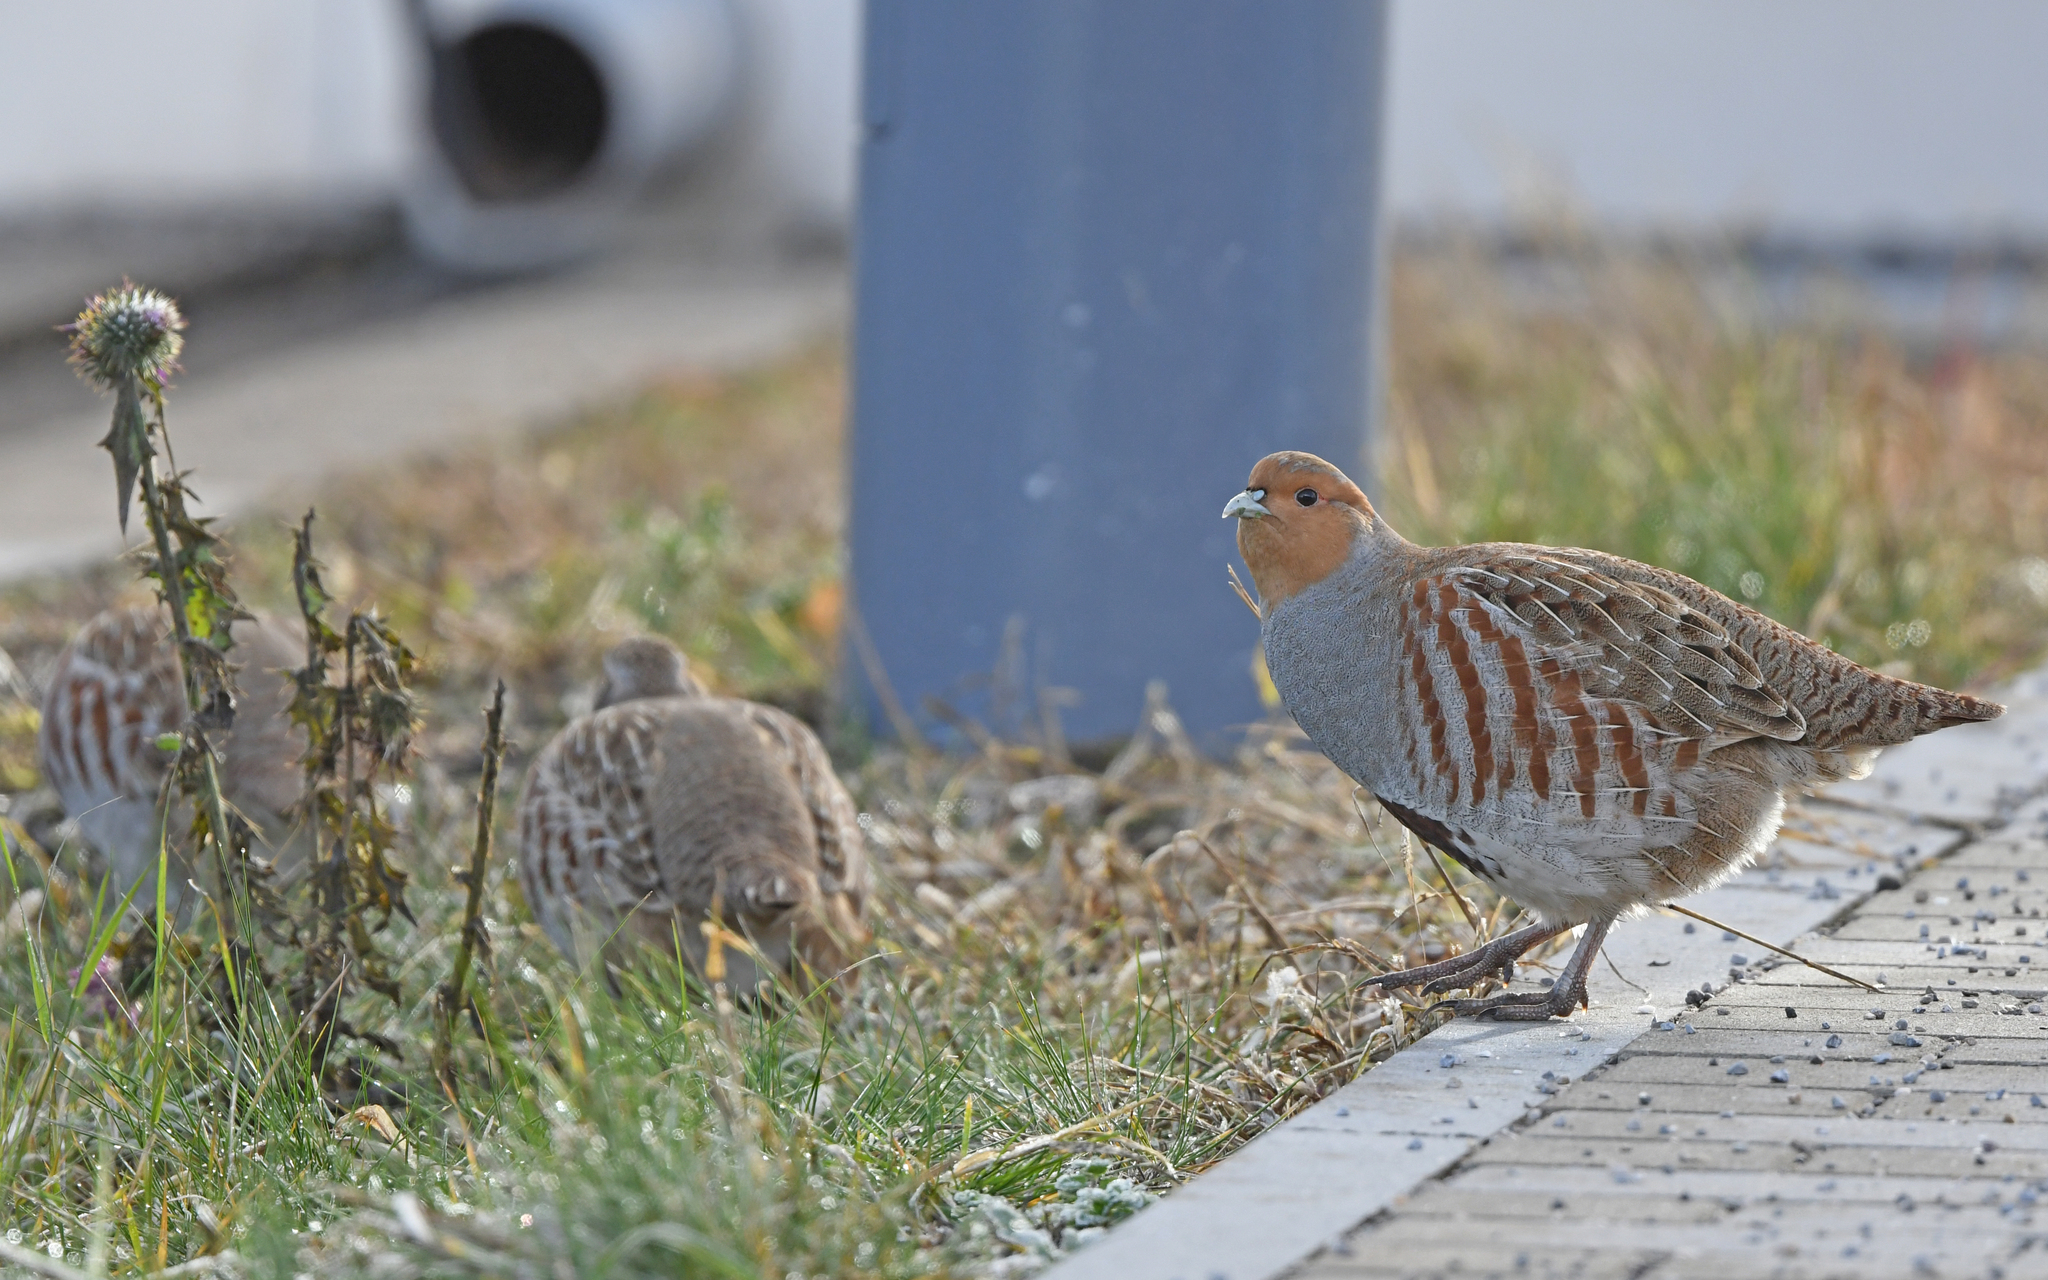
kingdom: Animalia
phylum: Chordata
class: Aves
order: Galliformes
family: Phasianidae
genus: Perdix
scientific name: Perdix perdix
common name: Grey partridge
